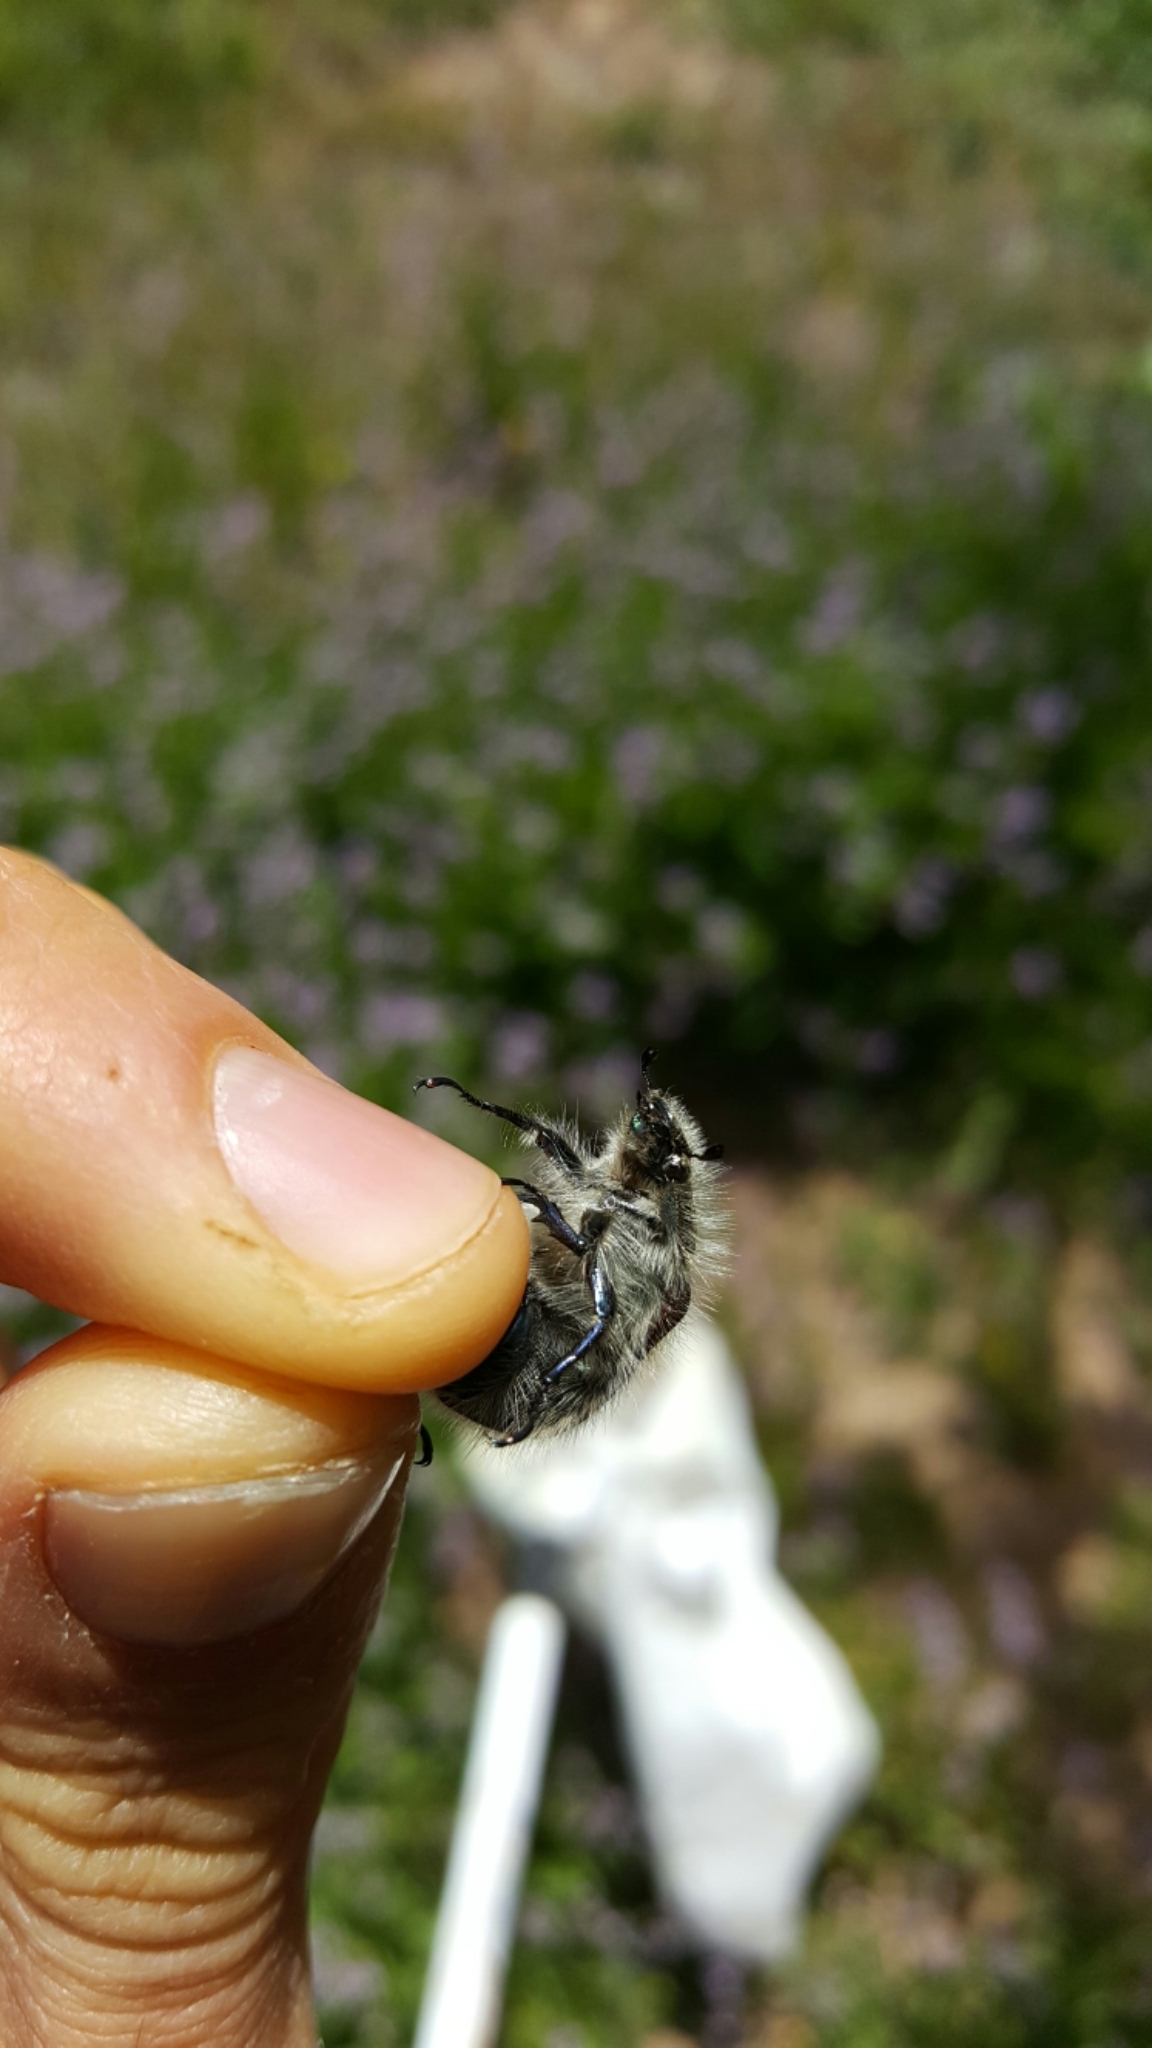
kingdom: Animalia
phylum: Arthropoda
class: Insecta
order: Coleoptera
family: Scarabaeidae
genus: Paracotalpa
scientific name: Paracotalpa granicollis
